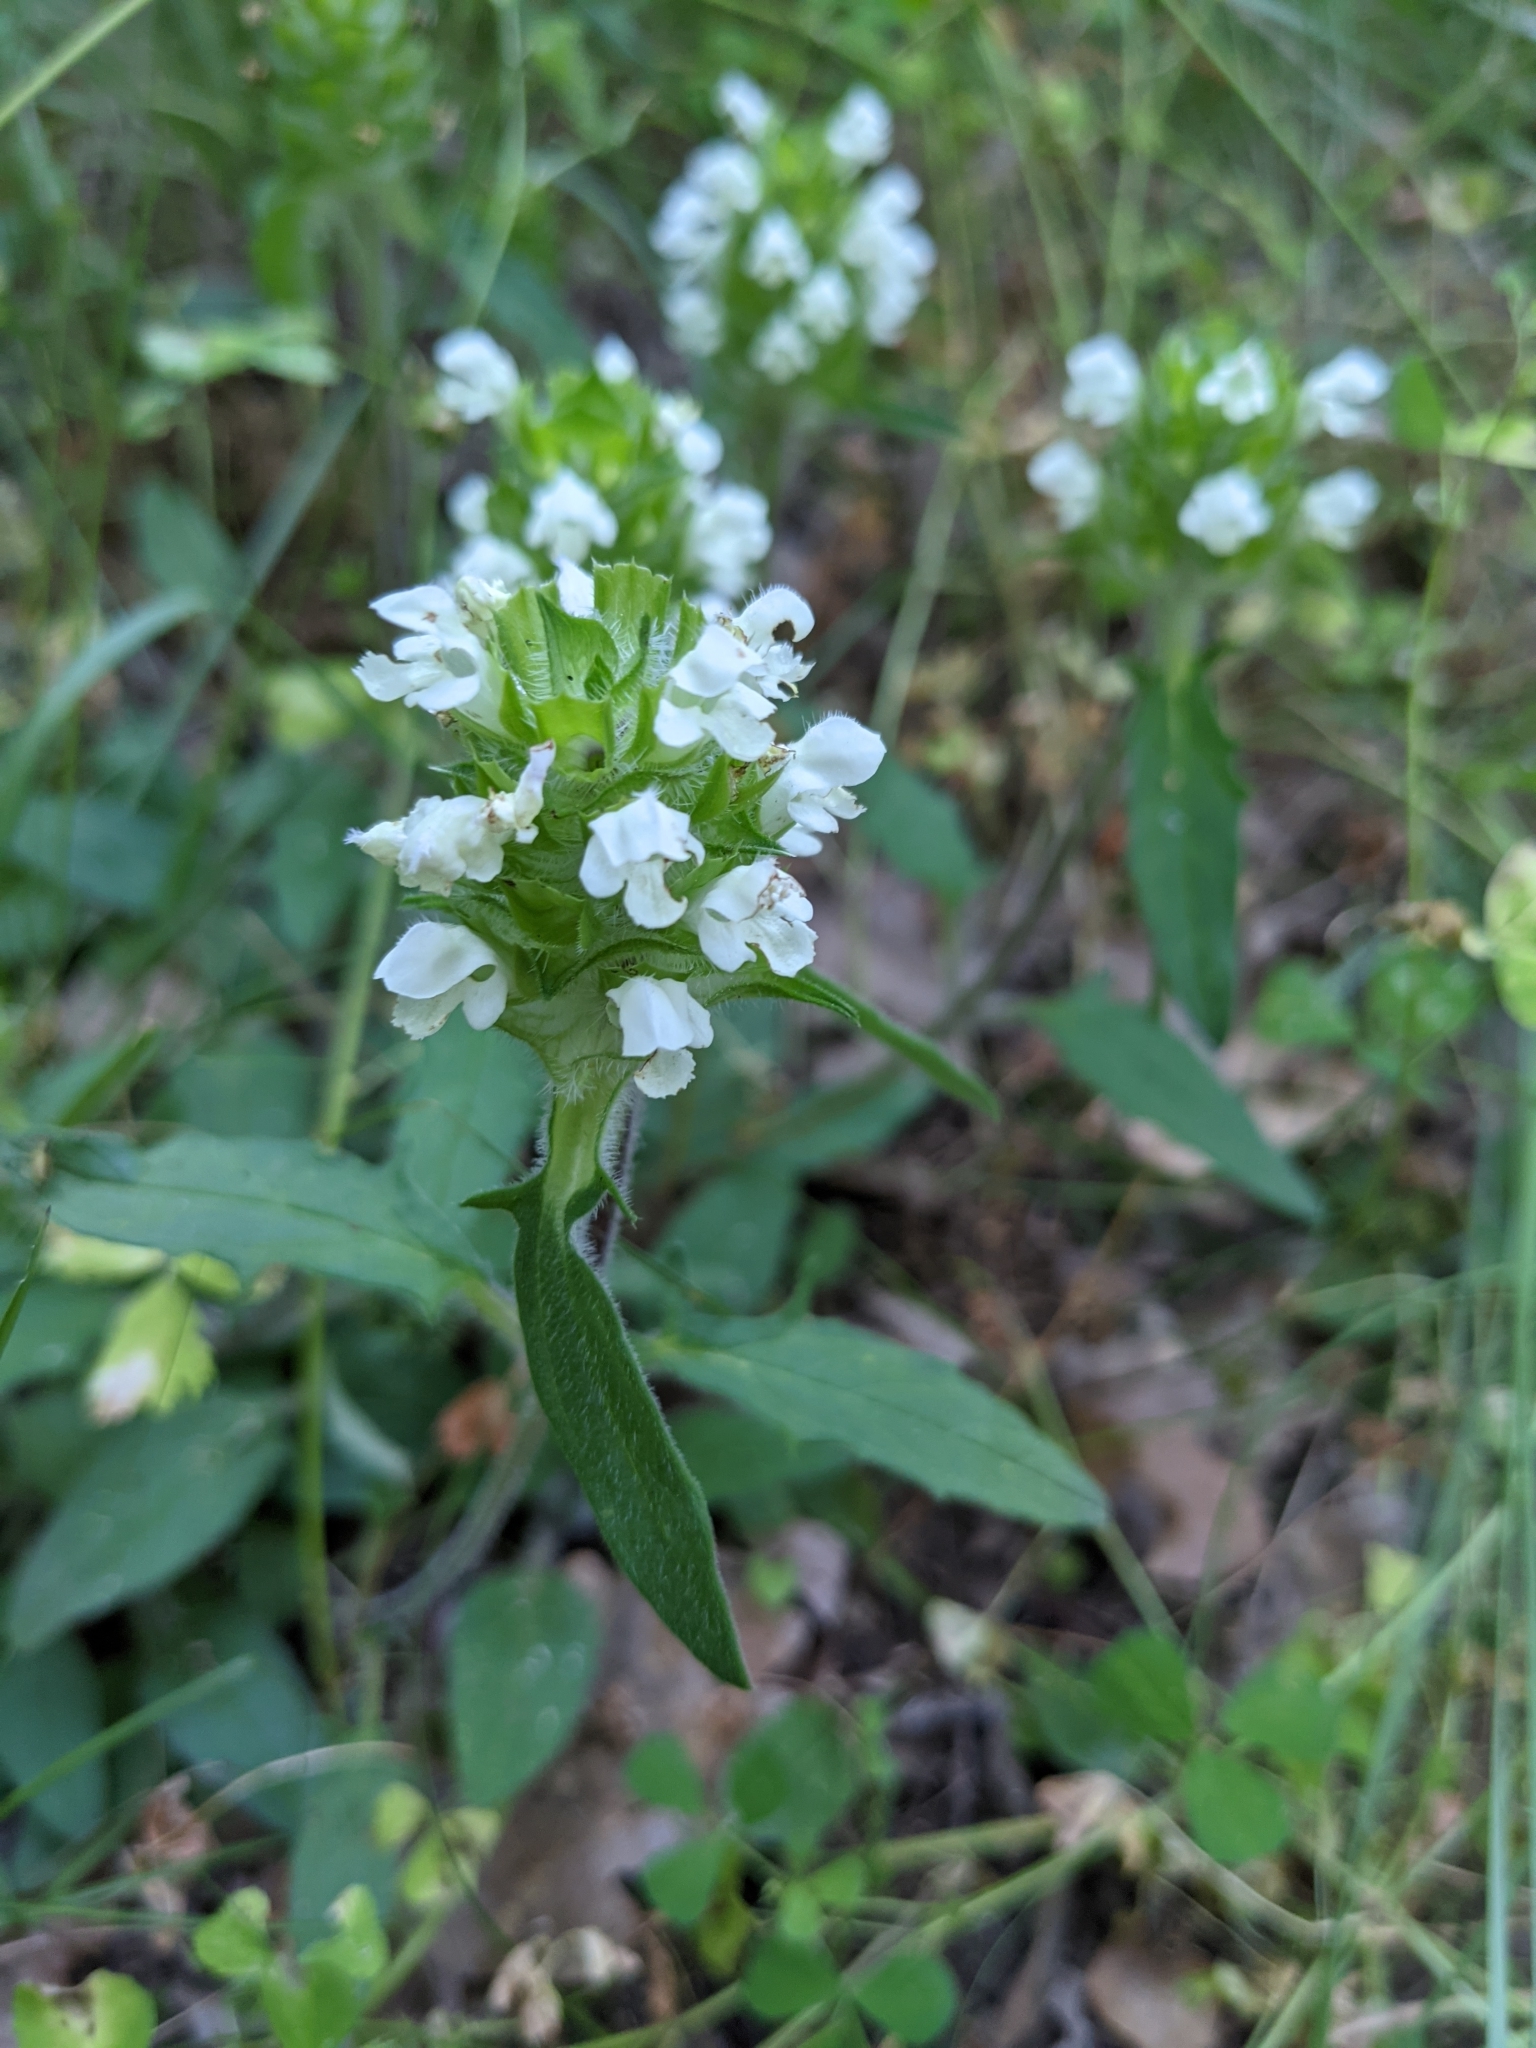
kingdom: Plantae
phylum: Tracheophyta
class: Magnoliopsida
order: Lamiales
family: Lamiaceae
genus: Prunella
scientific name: Prunella laciniata
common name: Cut-leaved selfheal
